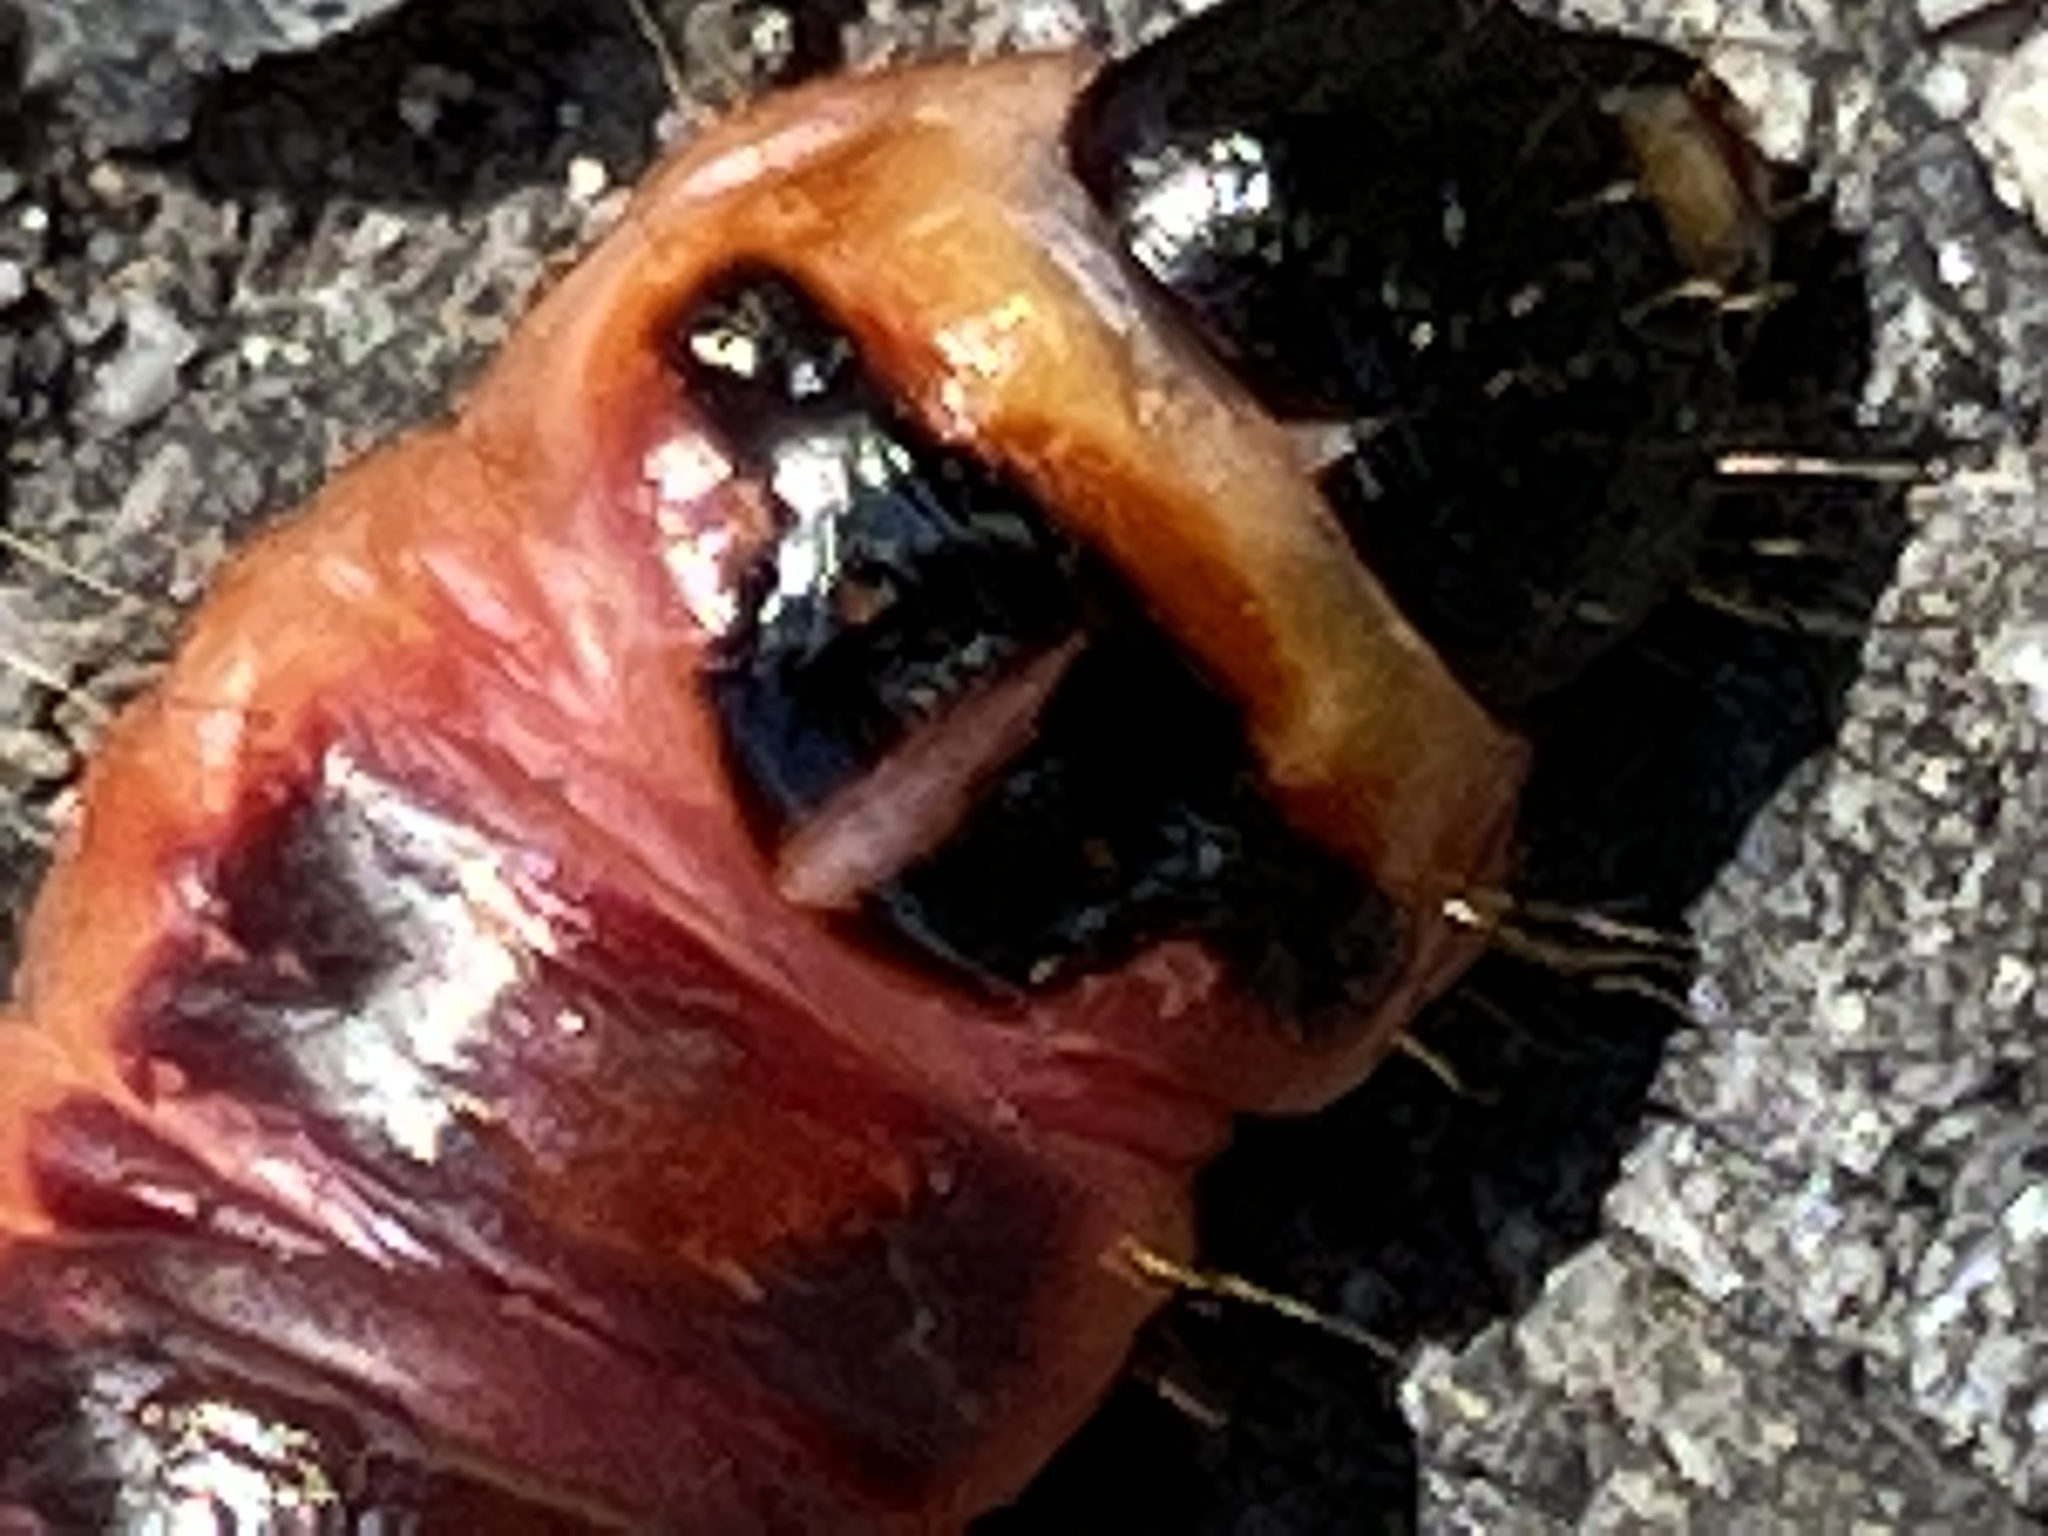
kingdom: Animalia
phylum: Arthropoda
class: Insecta
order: Lepidoptera
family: Cossidae
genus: Cossus
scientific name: Cossus cossus
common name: Goat moth
